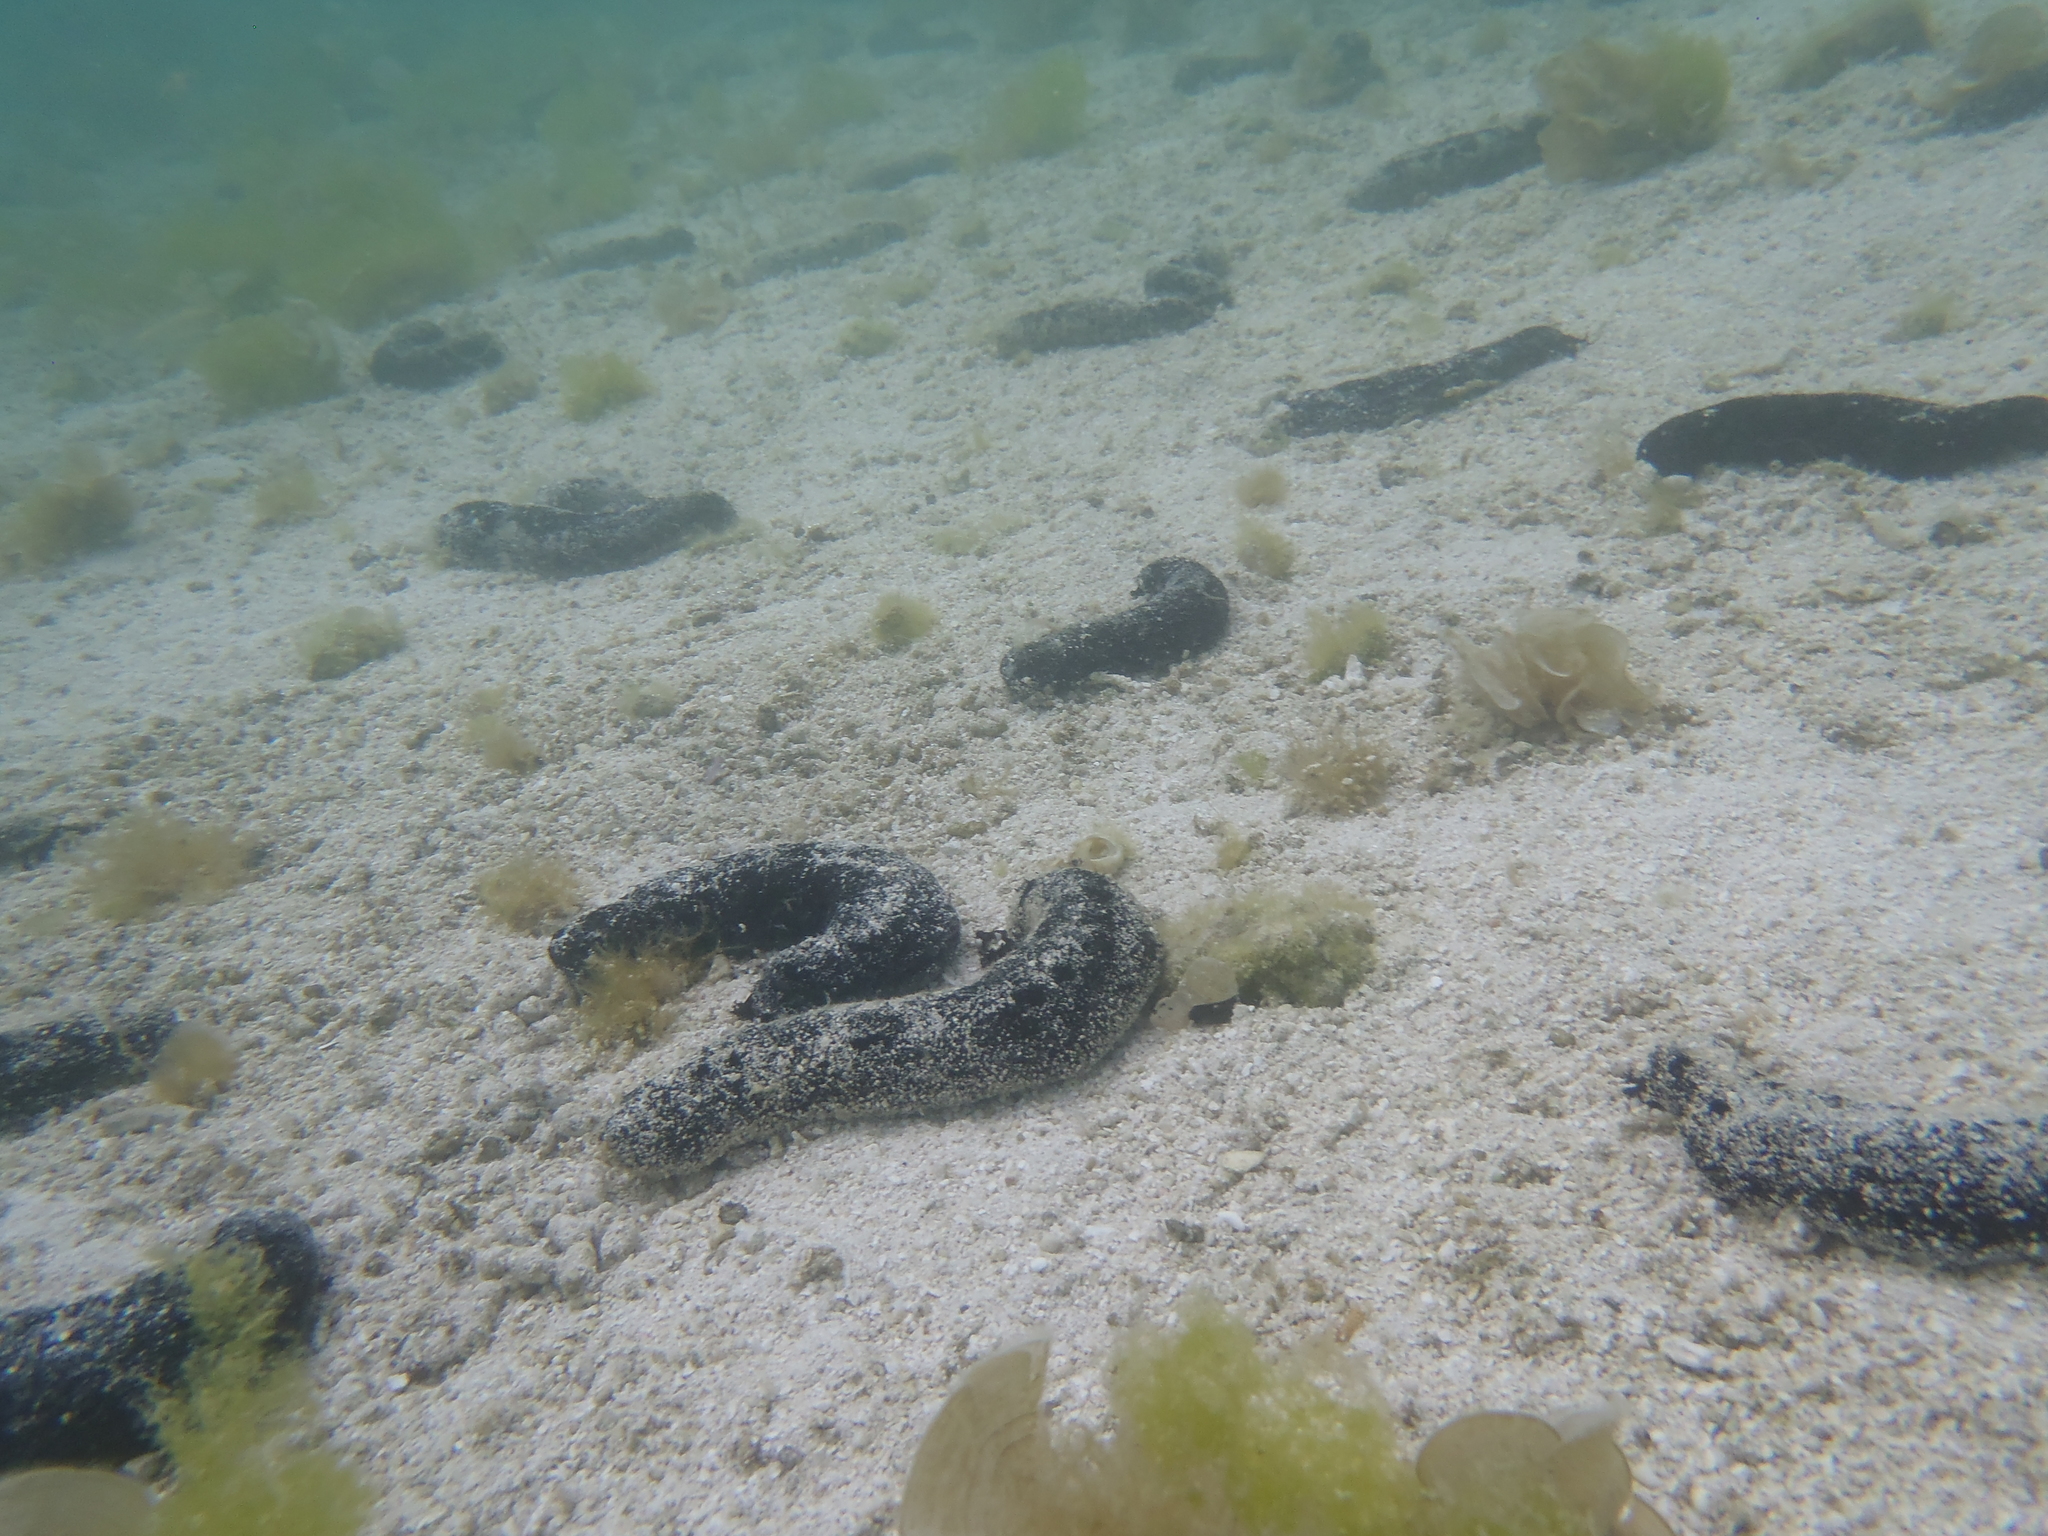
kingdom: Animalia
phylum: Echinodermata
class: Holothuroidea
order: Holothuriida
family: Holothuriidae
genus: Holothuria
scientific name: Holothuria atra
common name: Lollyfish
